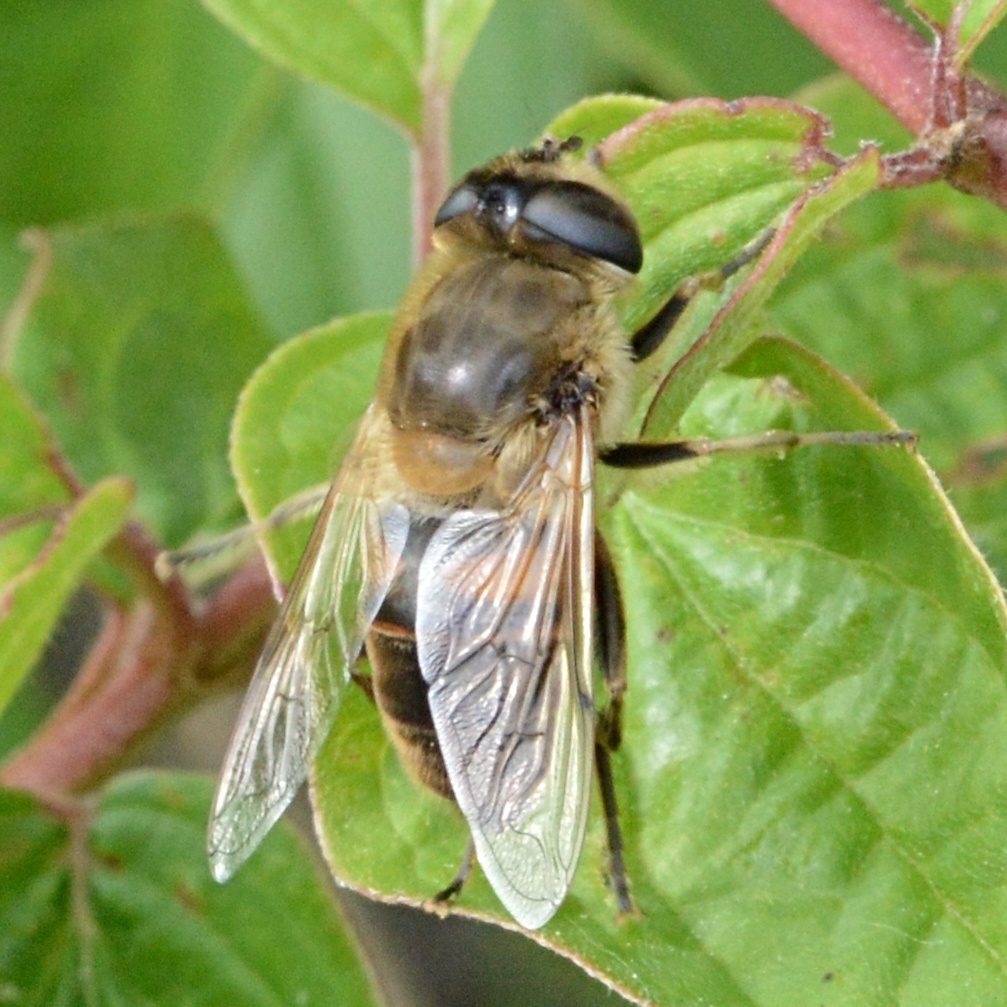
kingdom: Animalia
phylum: Arthropoda
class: Insecta
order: Diptera
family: Syrphidae
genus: Eristalis
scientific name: Eristalis tenax
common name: Drone fly
